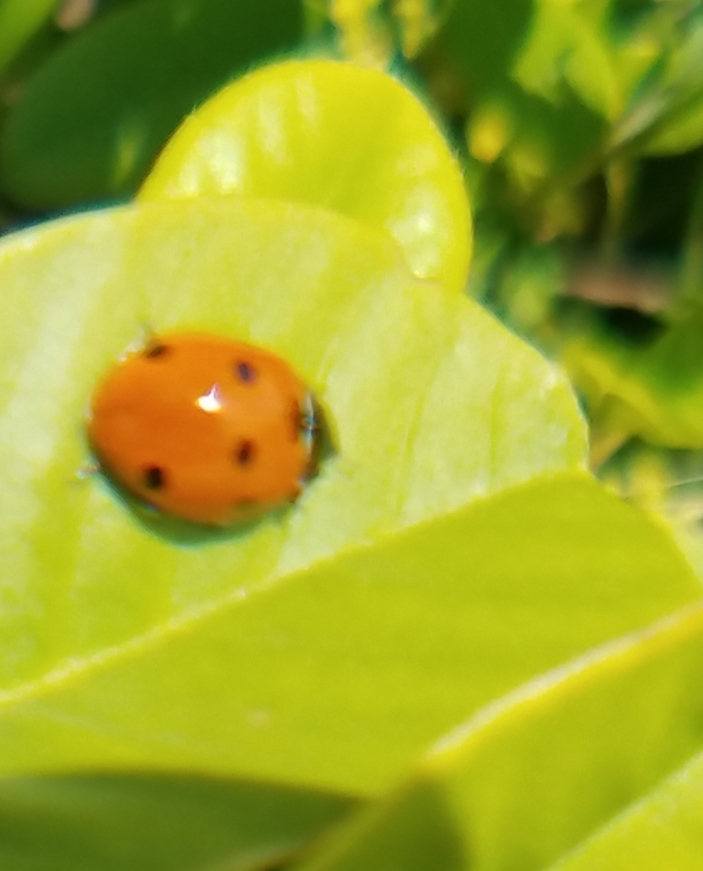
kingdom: Animalia
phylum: Arthropoda
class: Insecta
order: Coleoptera
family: Coccinellidae
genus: Coccinella
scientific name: Coccinella septempunctata
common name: Sevenspotted lady beetle
